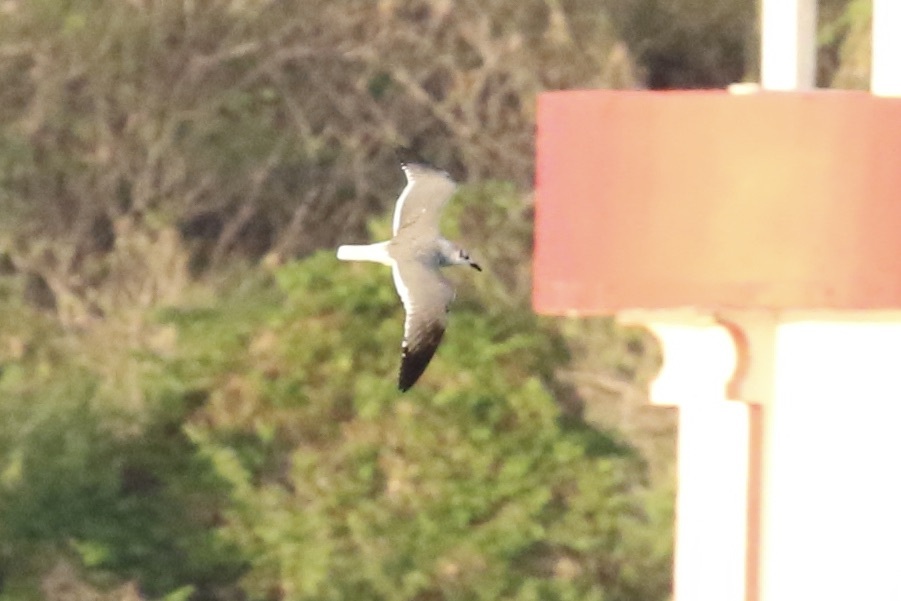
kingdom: Animalia
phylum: Chordata
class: Aves
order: Charadriiformes
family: Laridae
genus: Leucophaeus
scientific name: Leucophaeus atricilla
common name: Laughing gull
